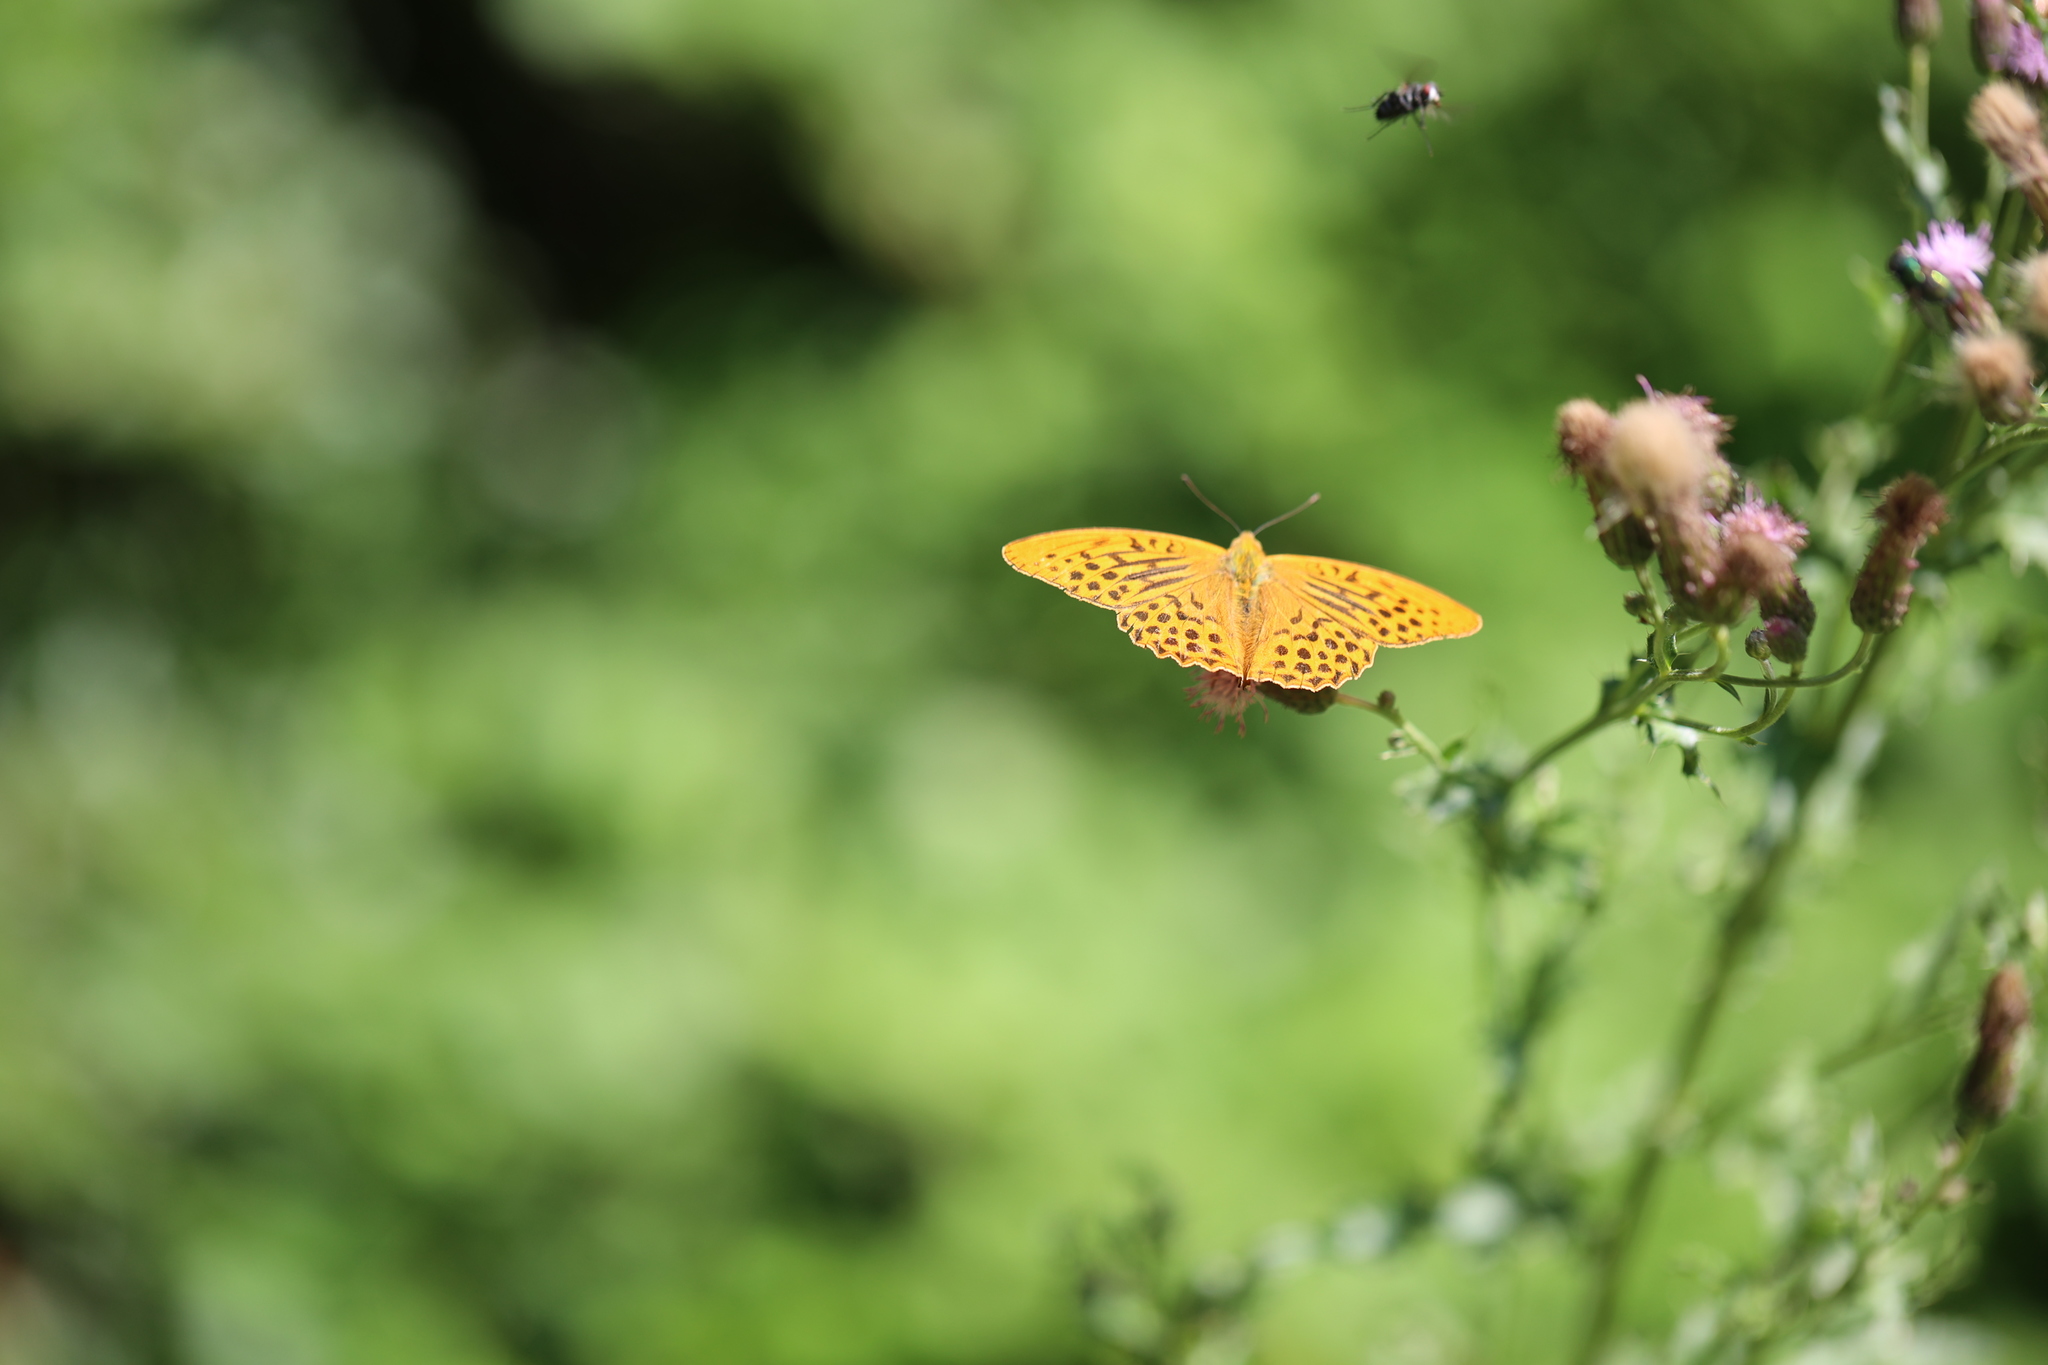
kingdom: Animalia
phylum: Arthropoda
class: Insecta
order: Lepidoptera
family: Nymphalidae
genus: Argynnis
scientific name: Argynnis paphia
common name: Silver-washed fritillary
